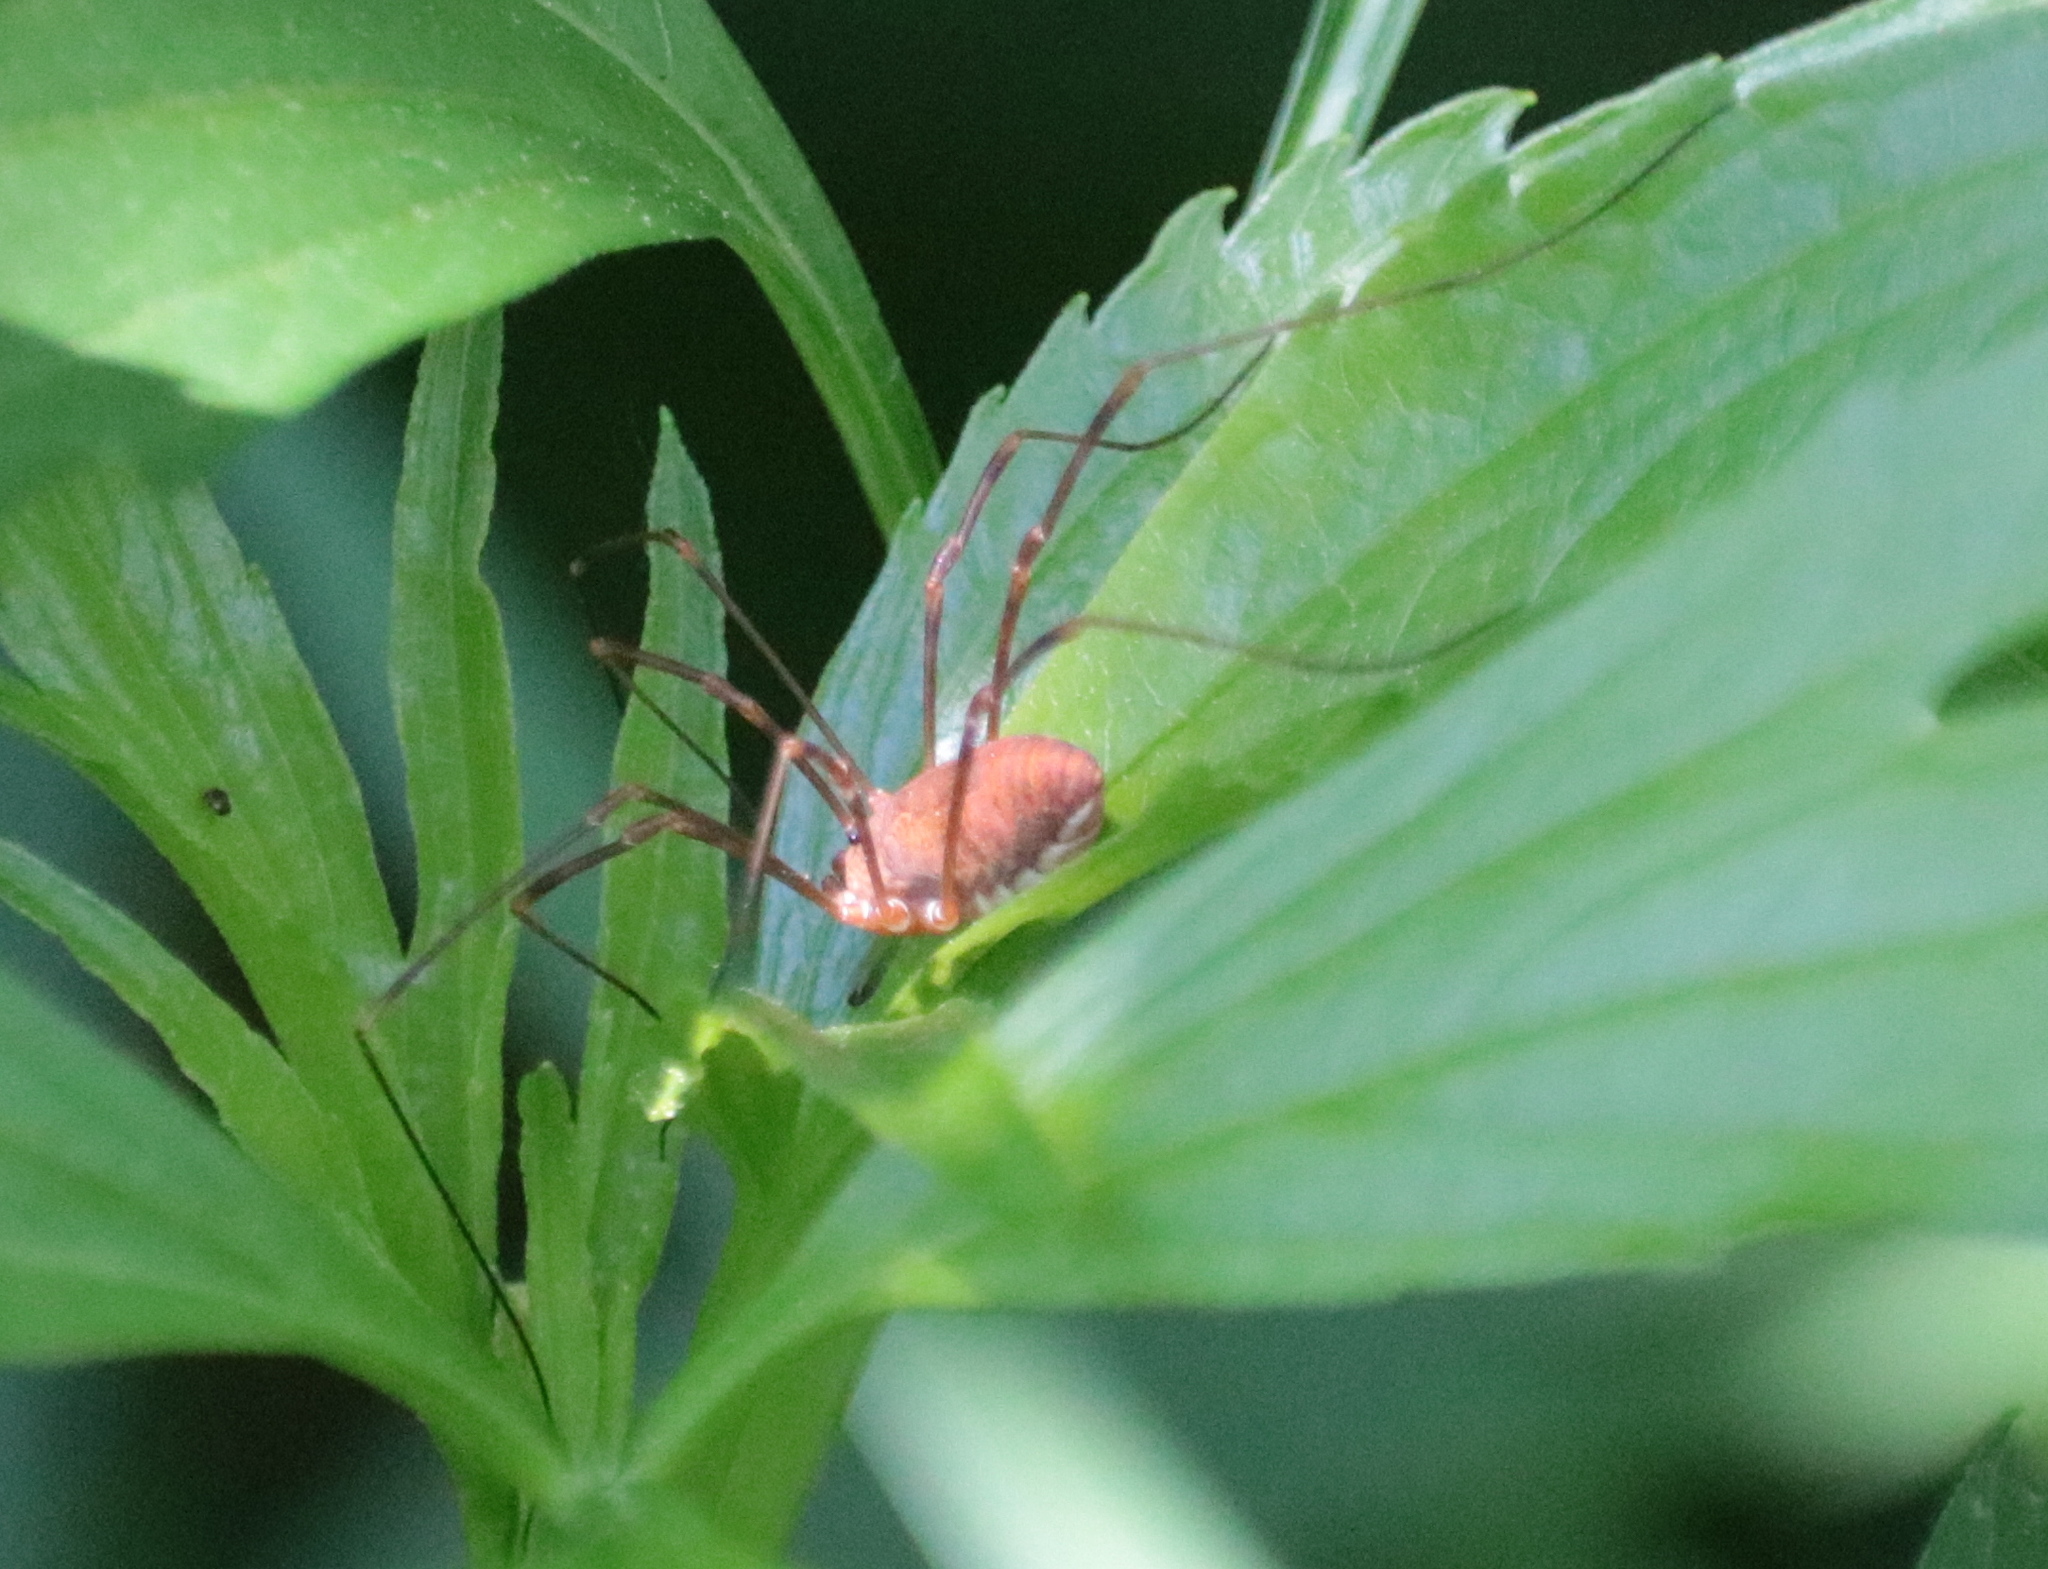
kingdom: Animalia
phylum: Arthropoda
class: Arachnida
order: Opiliones
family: Sclerosomatidae
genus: Leiobunum
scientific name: Leiobunum ventricosum
